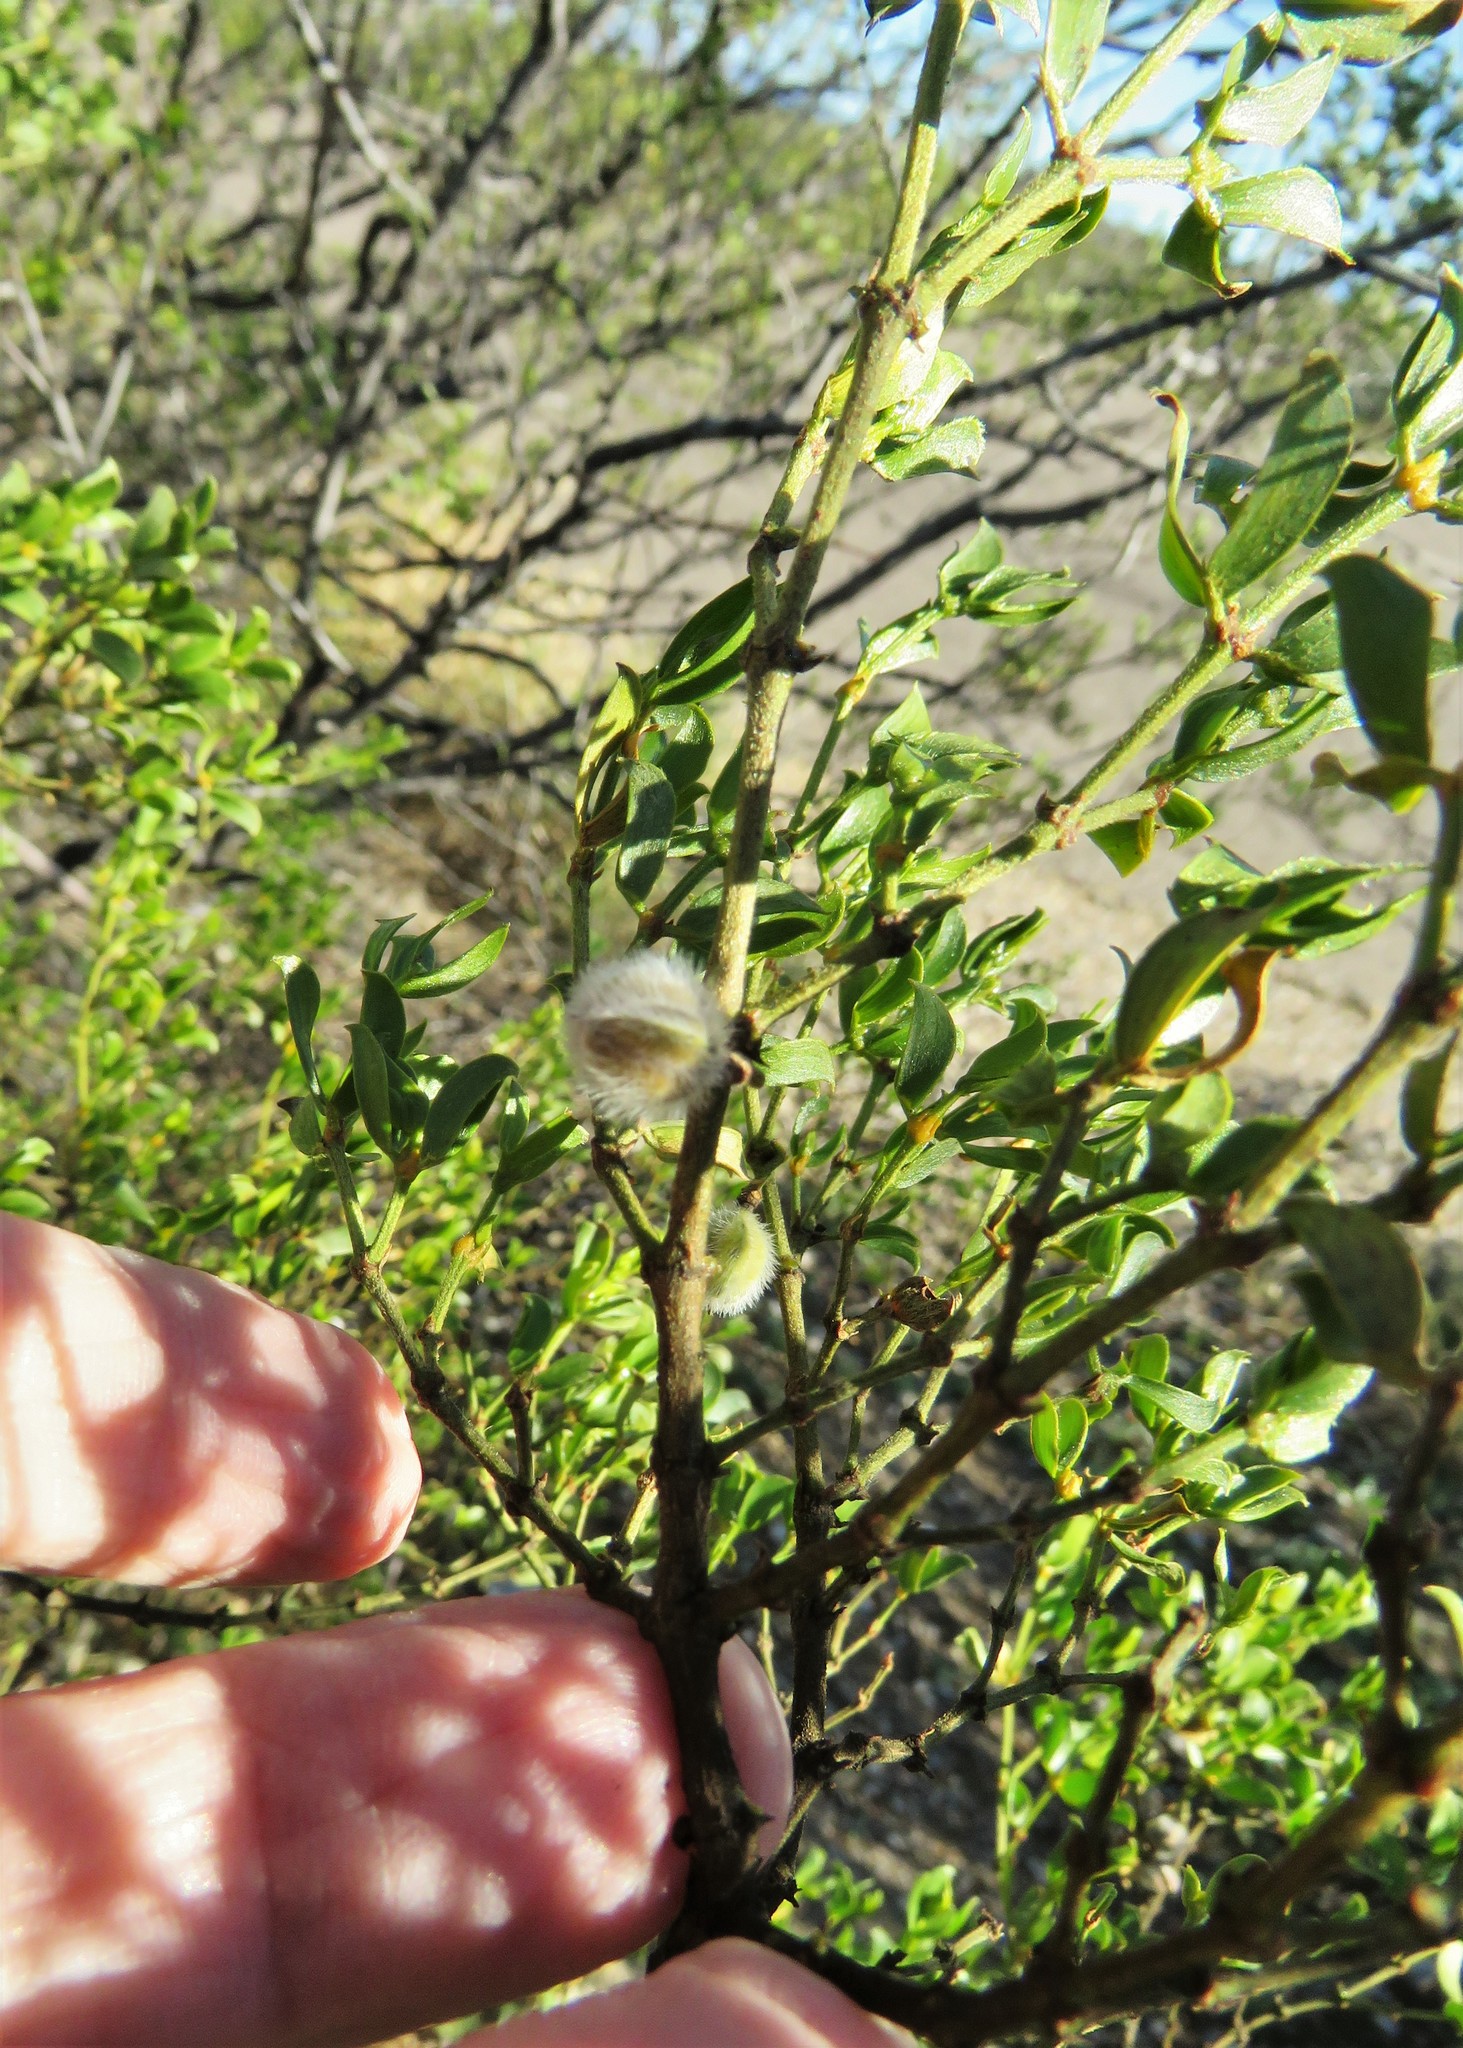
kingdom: Plantae
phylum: Tracheophyta
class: Magnoliopsida
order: Zygophyllales
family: Zygophyllaceae
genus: Larrea
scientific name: Larrea tridentata
